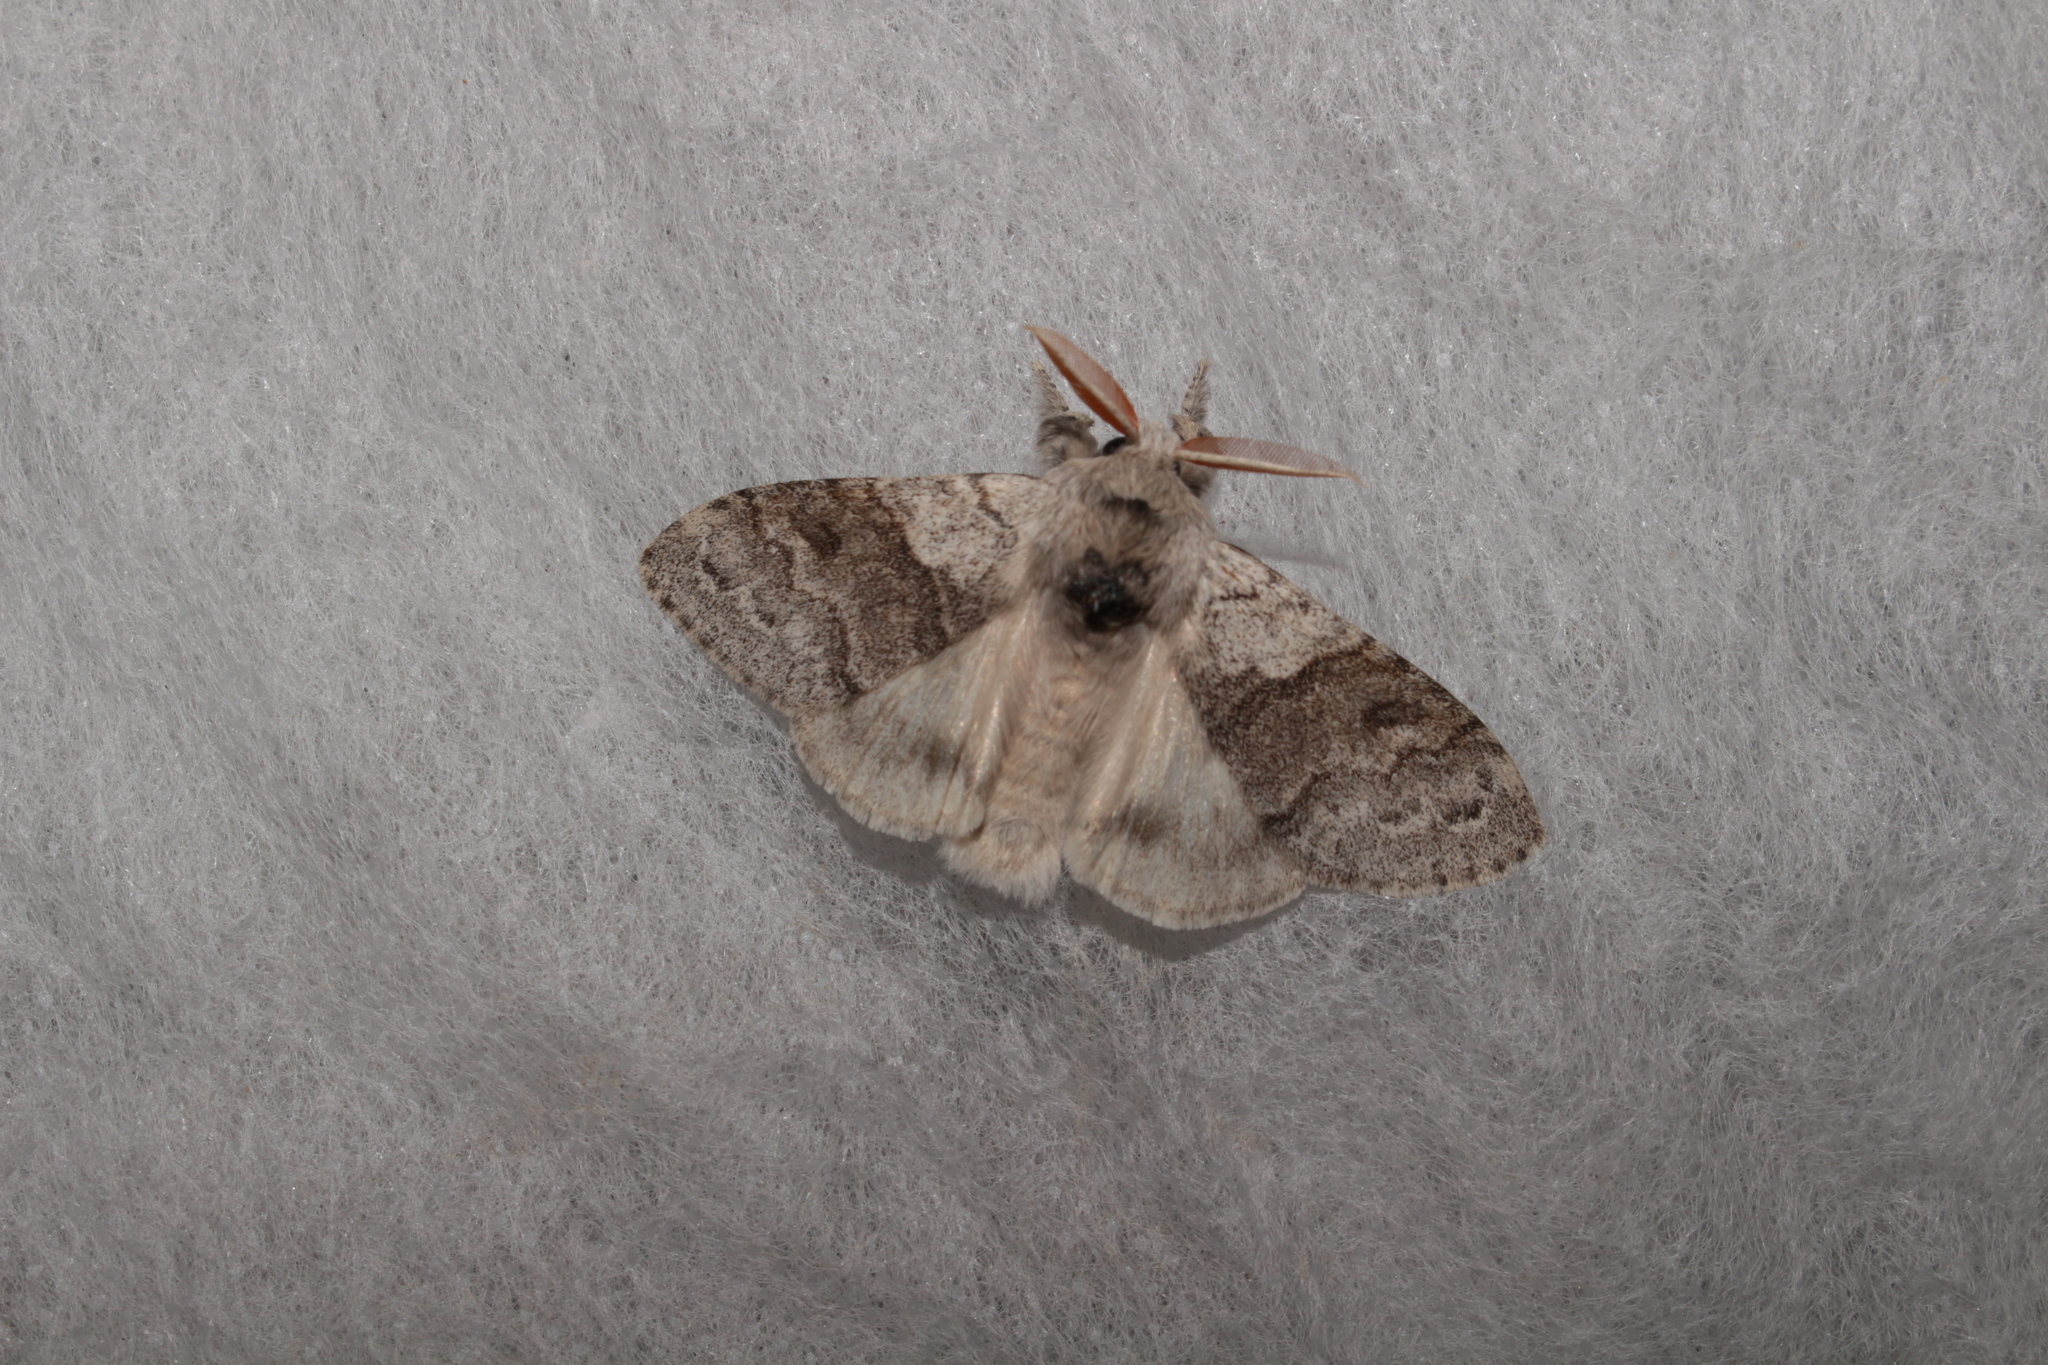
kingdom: Animalia
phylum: Arthropoda
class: Insecta
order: Lepidoptera
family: Erebidae
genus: Calliteara
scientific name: Calliteara pudibunda
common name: Pale tussock
